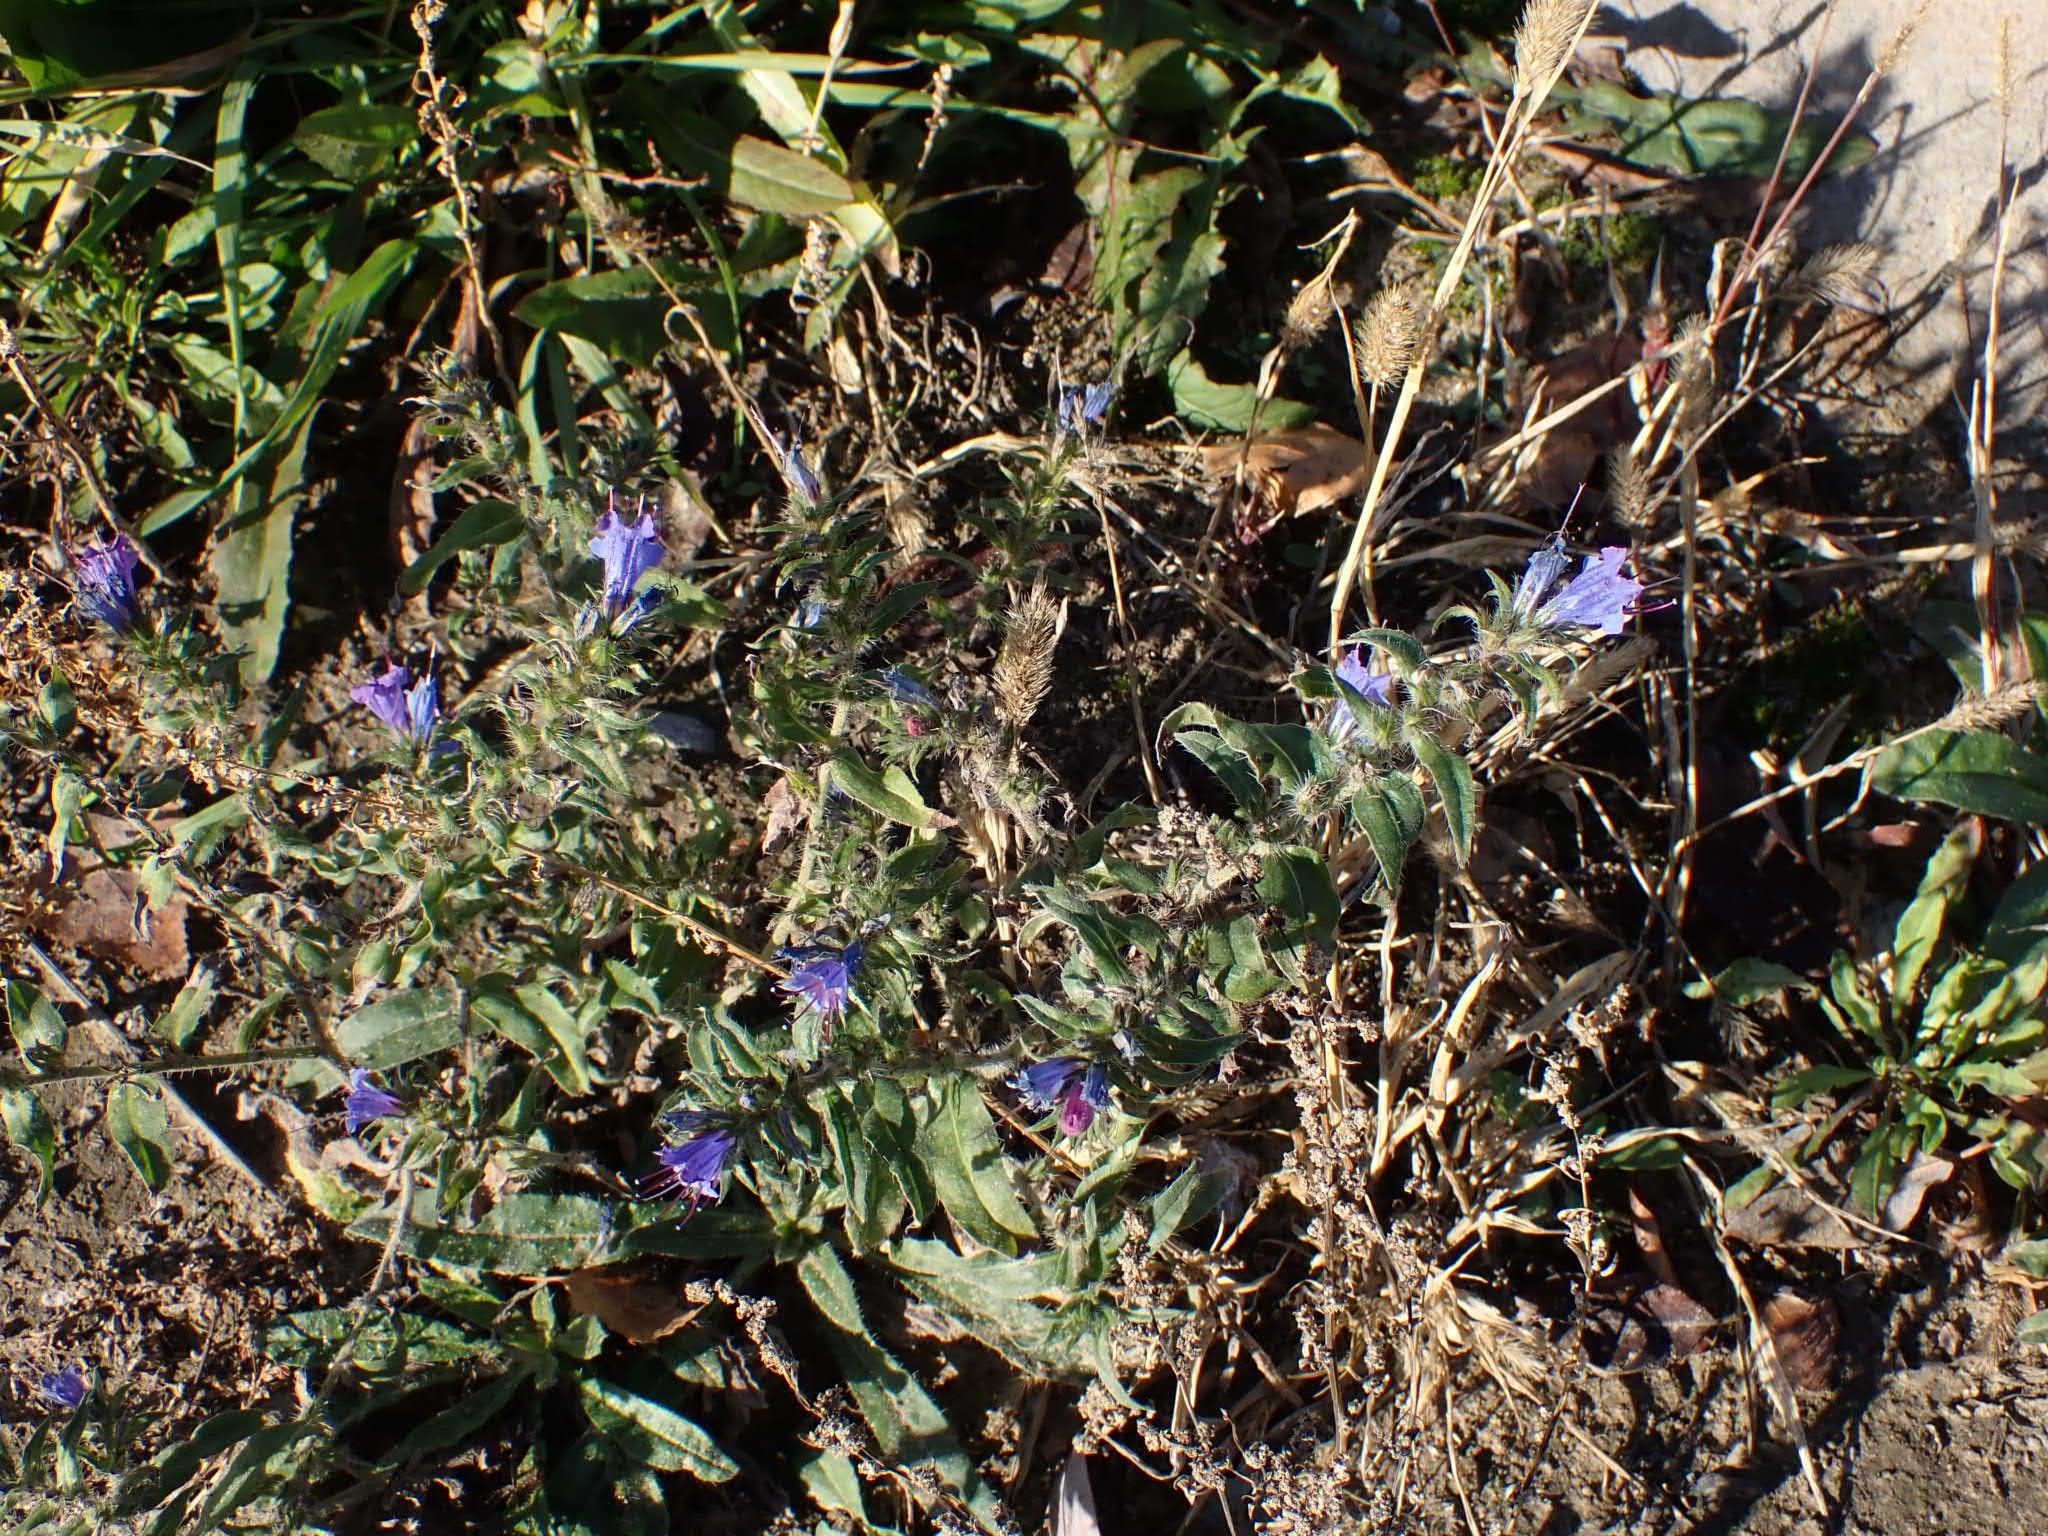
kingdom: Plantae
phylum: Tracheophyta
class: Magnoliopsida
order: Boraginales
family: Boraginaceae
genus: Echium
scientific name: Echium vulgare
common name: Common viper's bugloss
